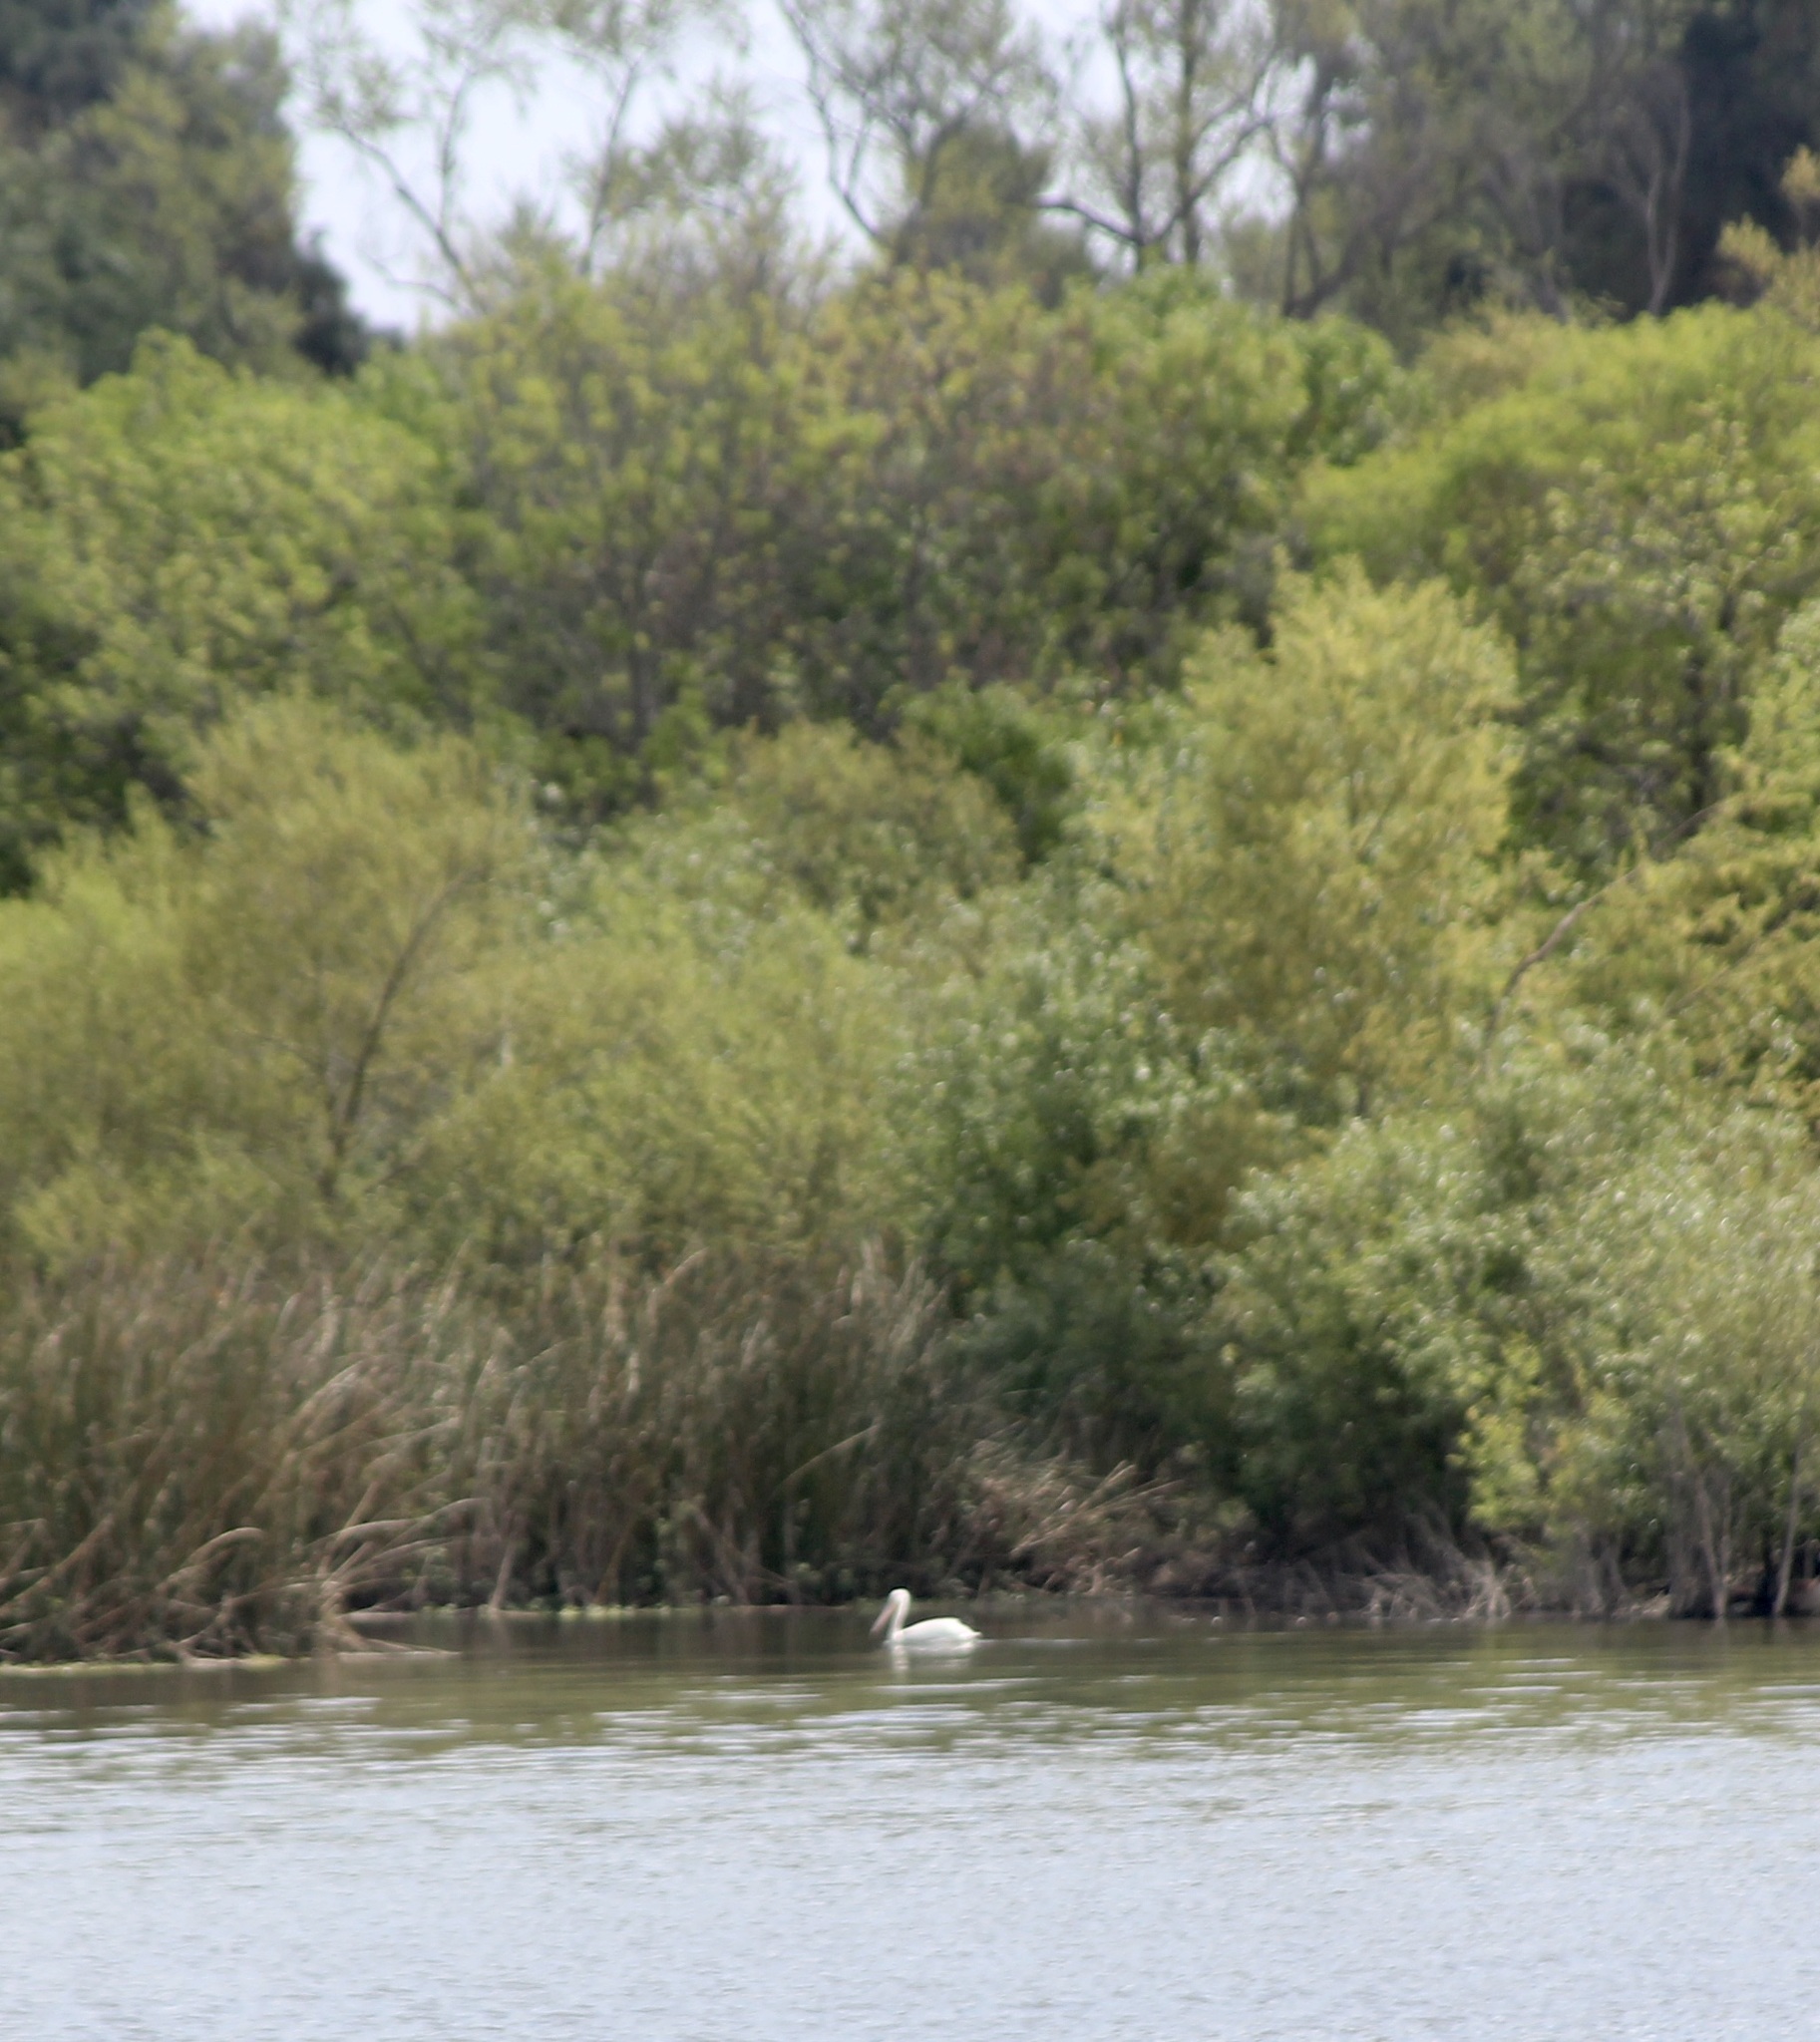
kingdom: Animalia
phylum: Chordata
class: Aves
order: Pelecaniformes
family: Pelecanidae
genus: Pelecanus
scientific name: Pelecanus erythrorhynchos
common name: American white pelican
